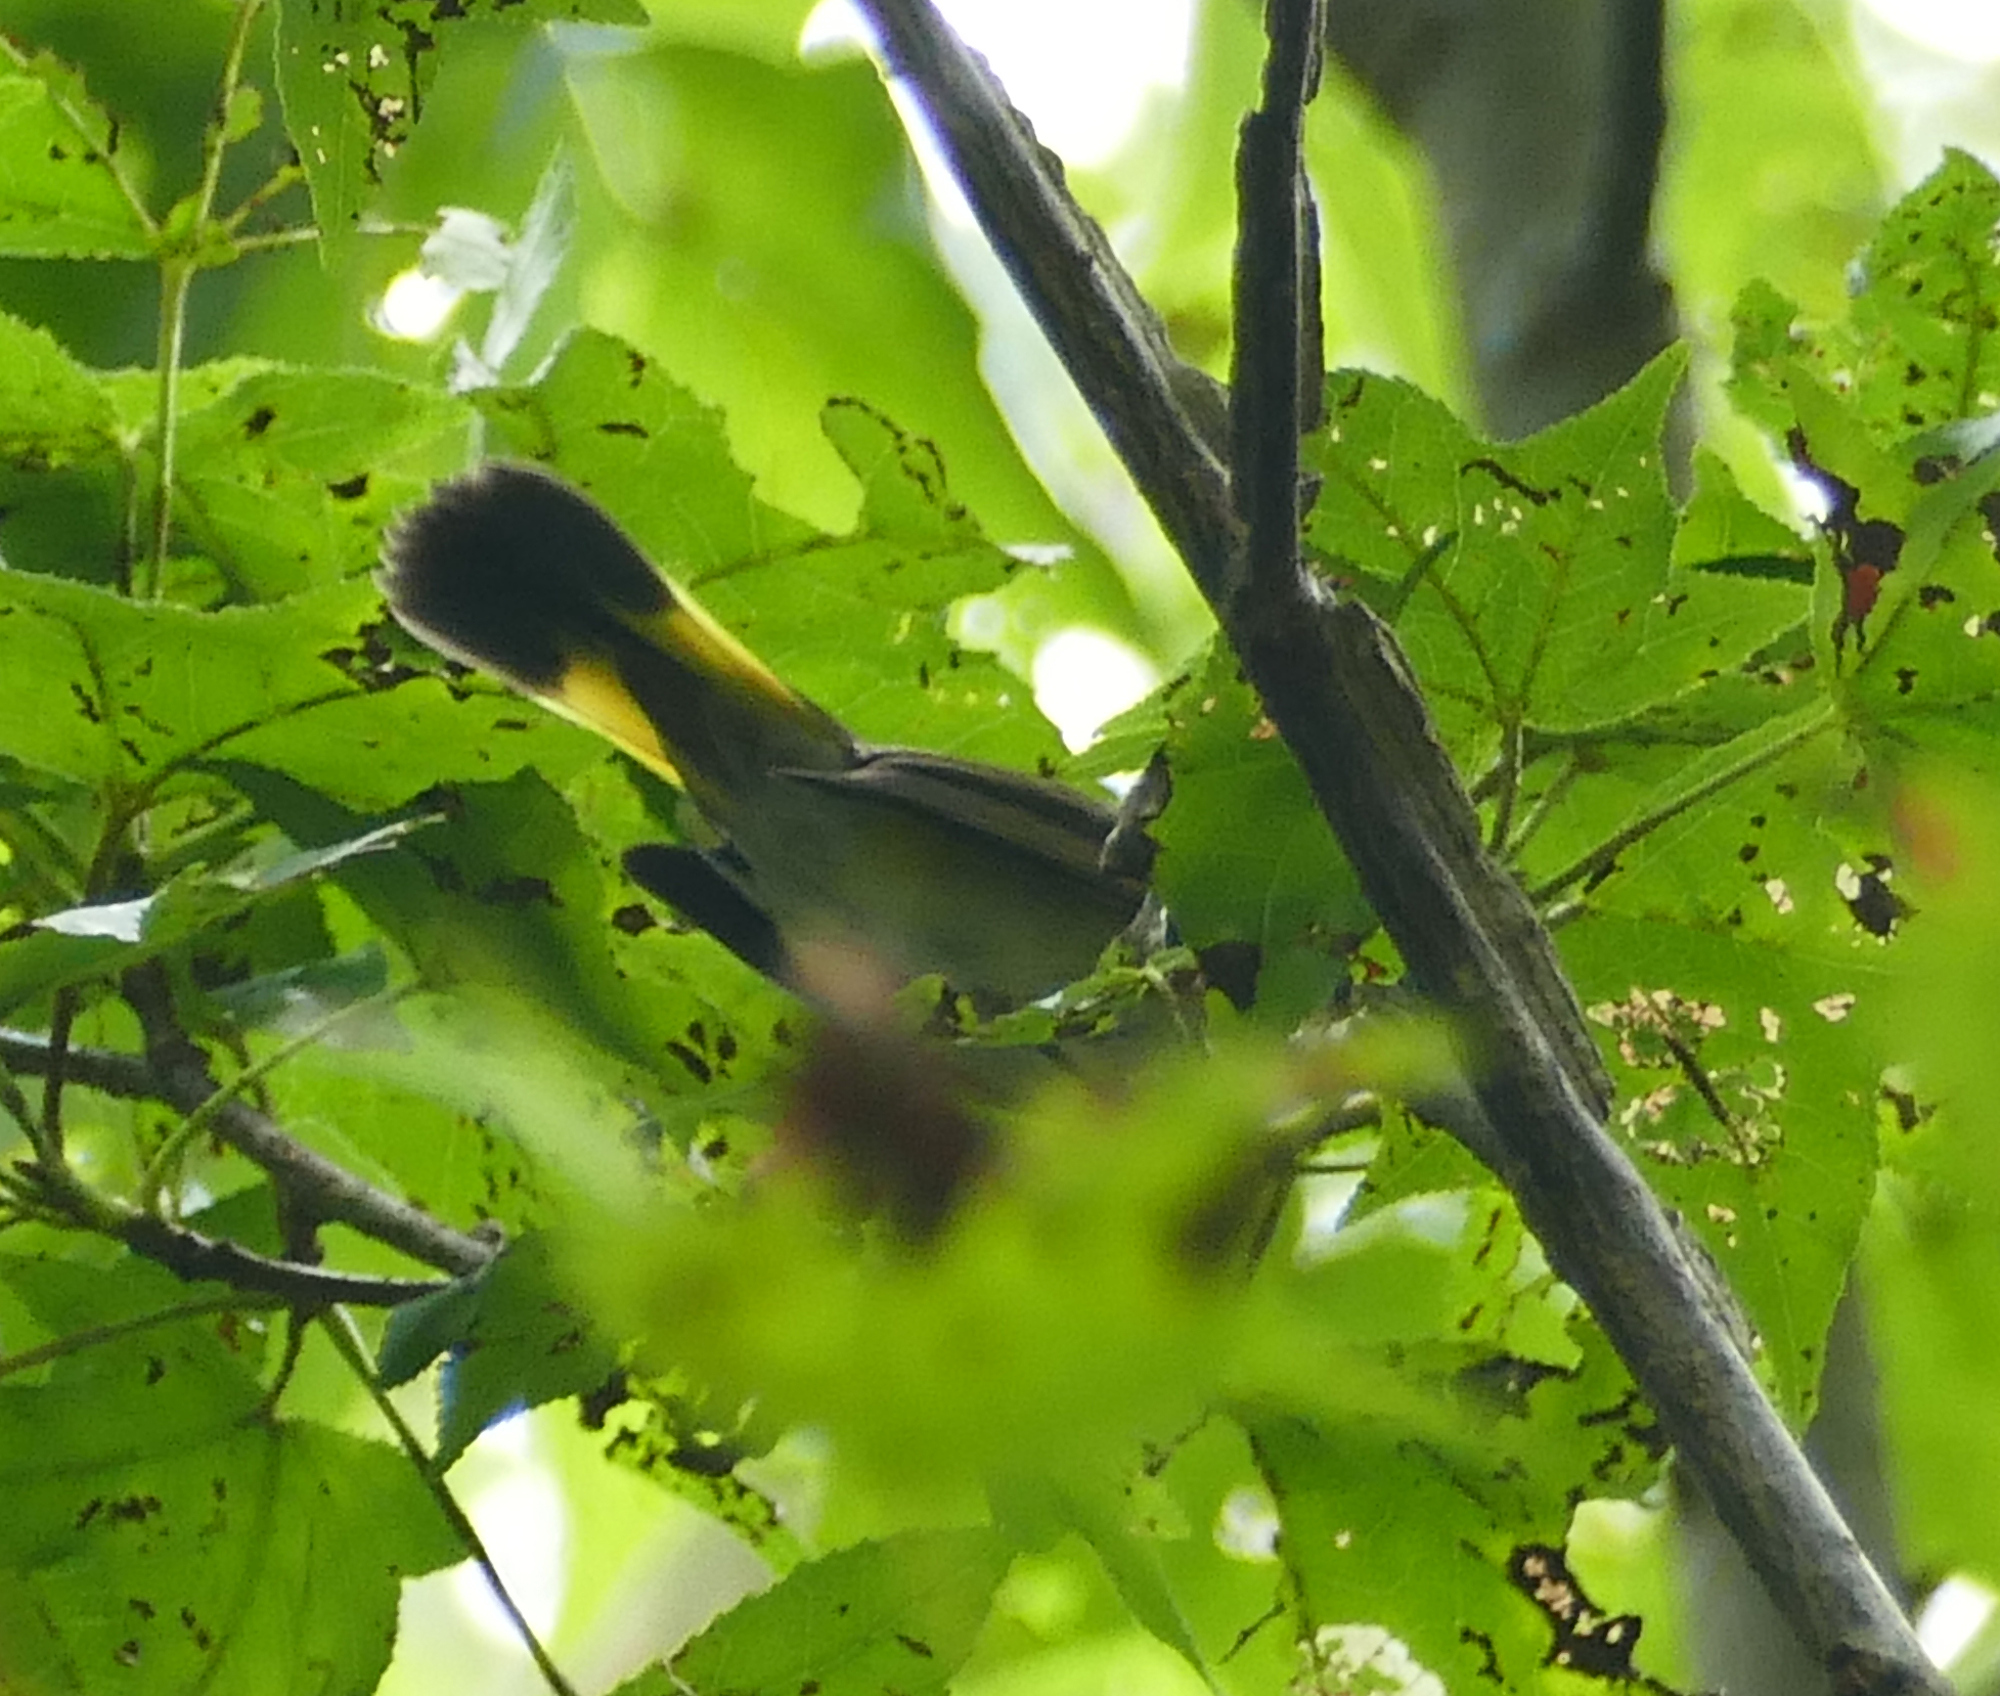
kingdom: Animalia
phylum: Chordata
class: Aves
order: Passeriformes
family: Parulidae
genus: Setophaga
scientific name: Setophaga ruticilla
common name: American redstart
